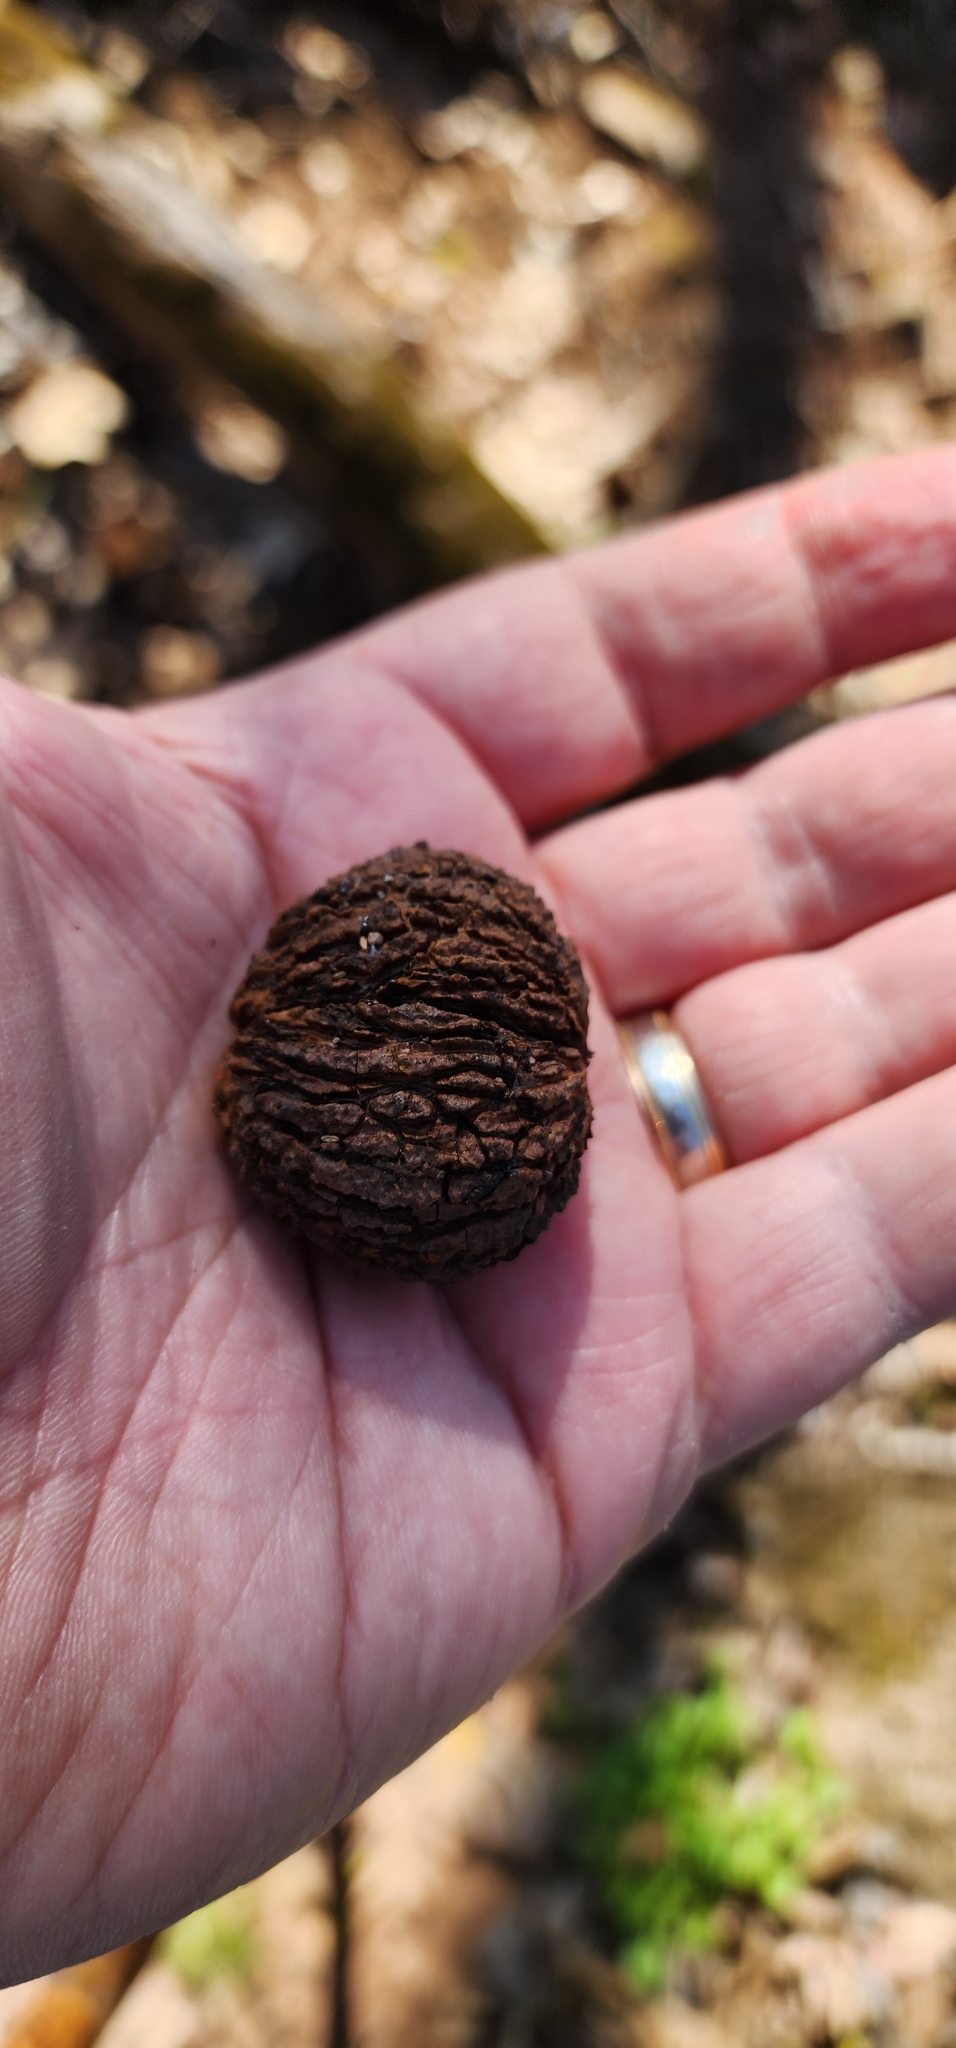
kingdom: Plantae
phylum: Tracheophyta
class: Magnoliopsida
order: Fagales
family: Juglandaceae
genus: Juglans
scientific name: Juglans nigra
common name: Black walnut
